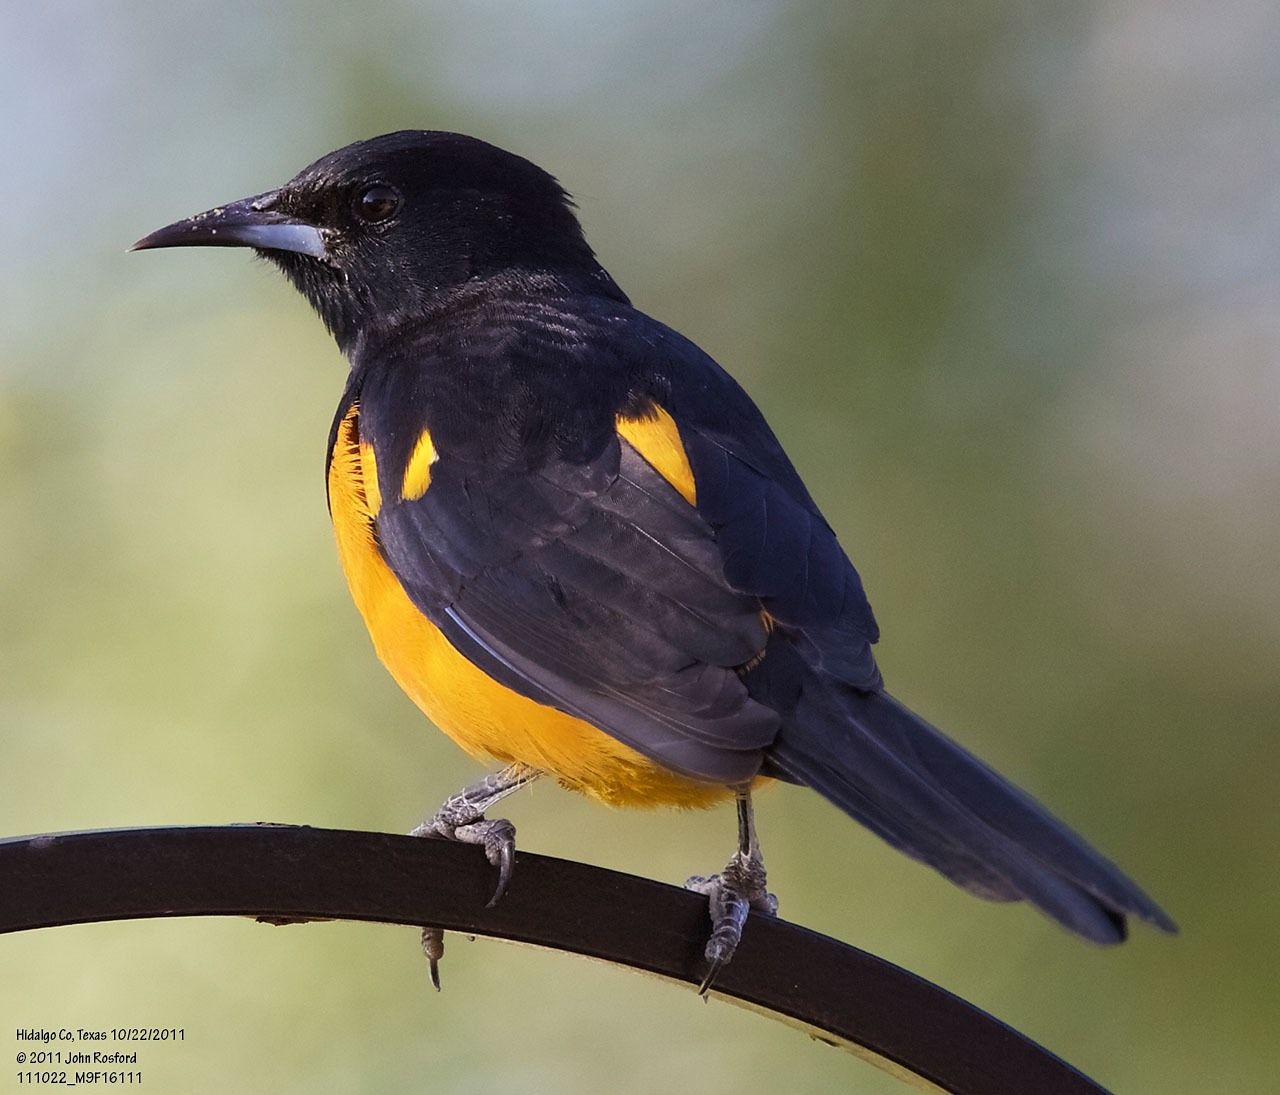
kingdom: Animalia
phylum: Chordata
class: Aves
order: Passeriformes
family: Icteridae
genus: Icterus
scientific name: Icterus wagleri
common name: Black-vented oriole
